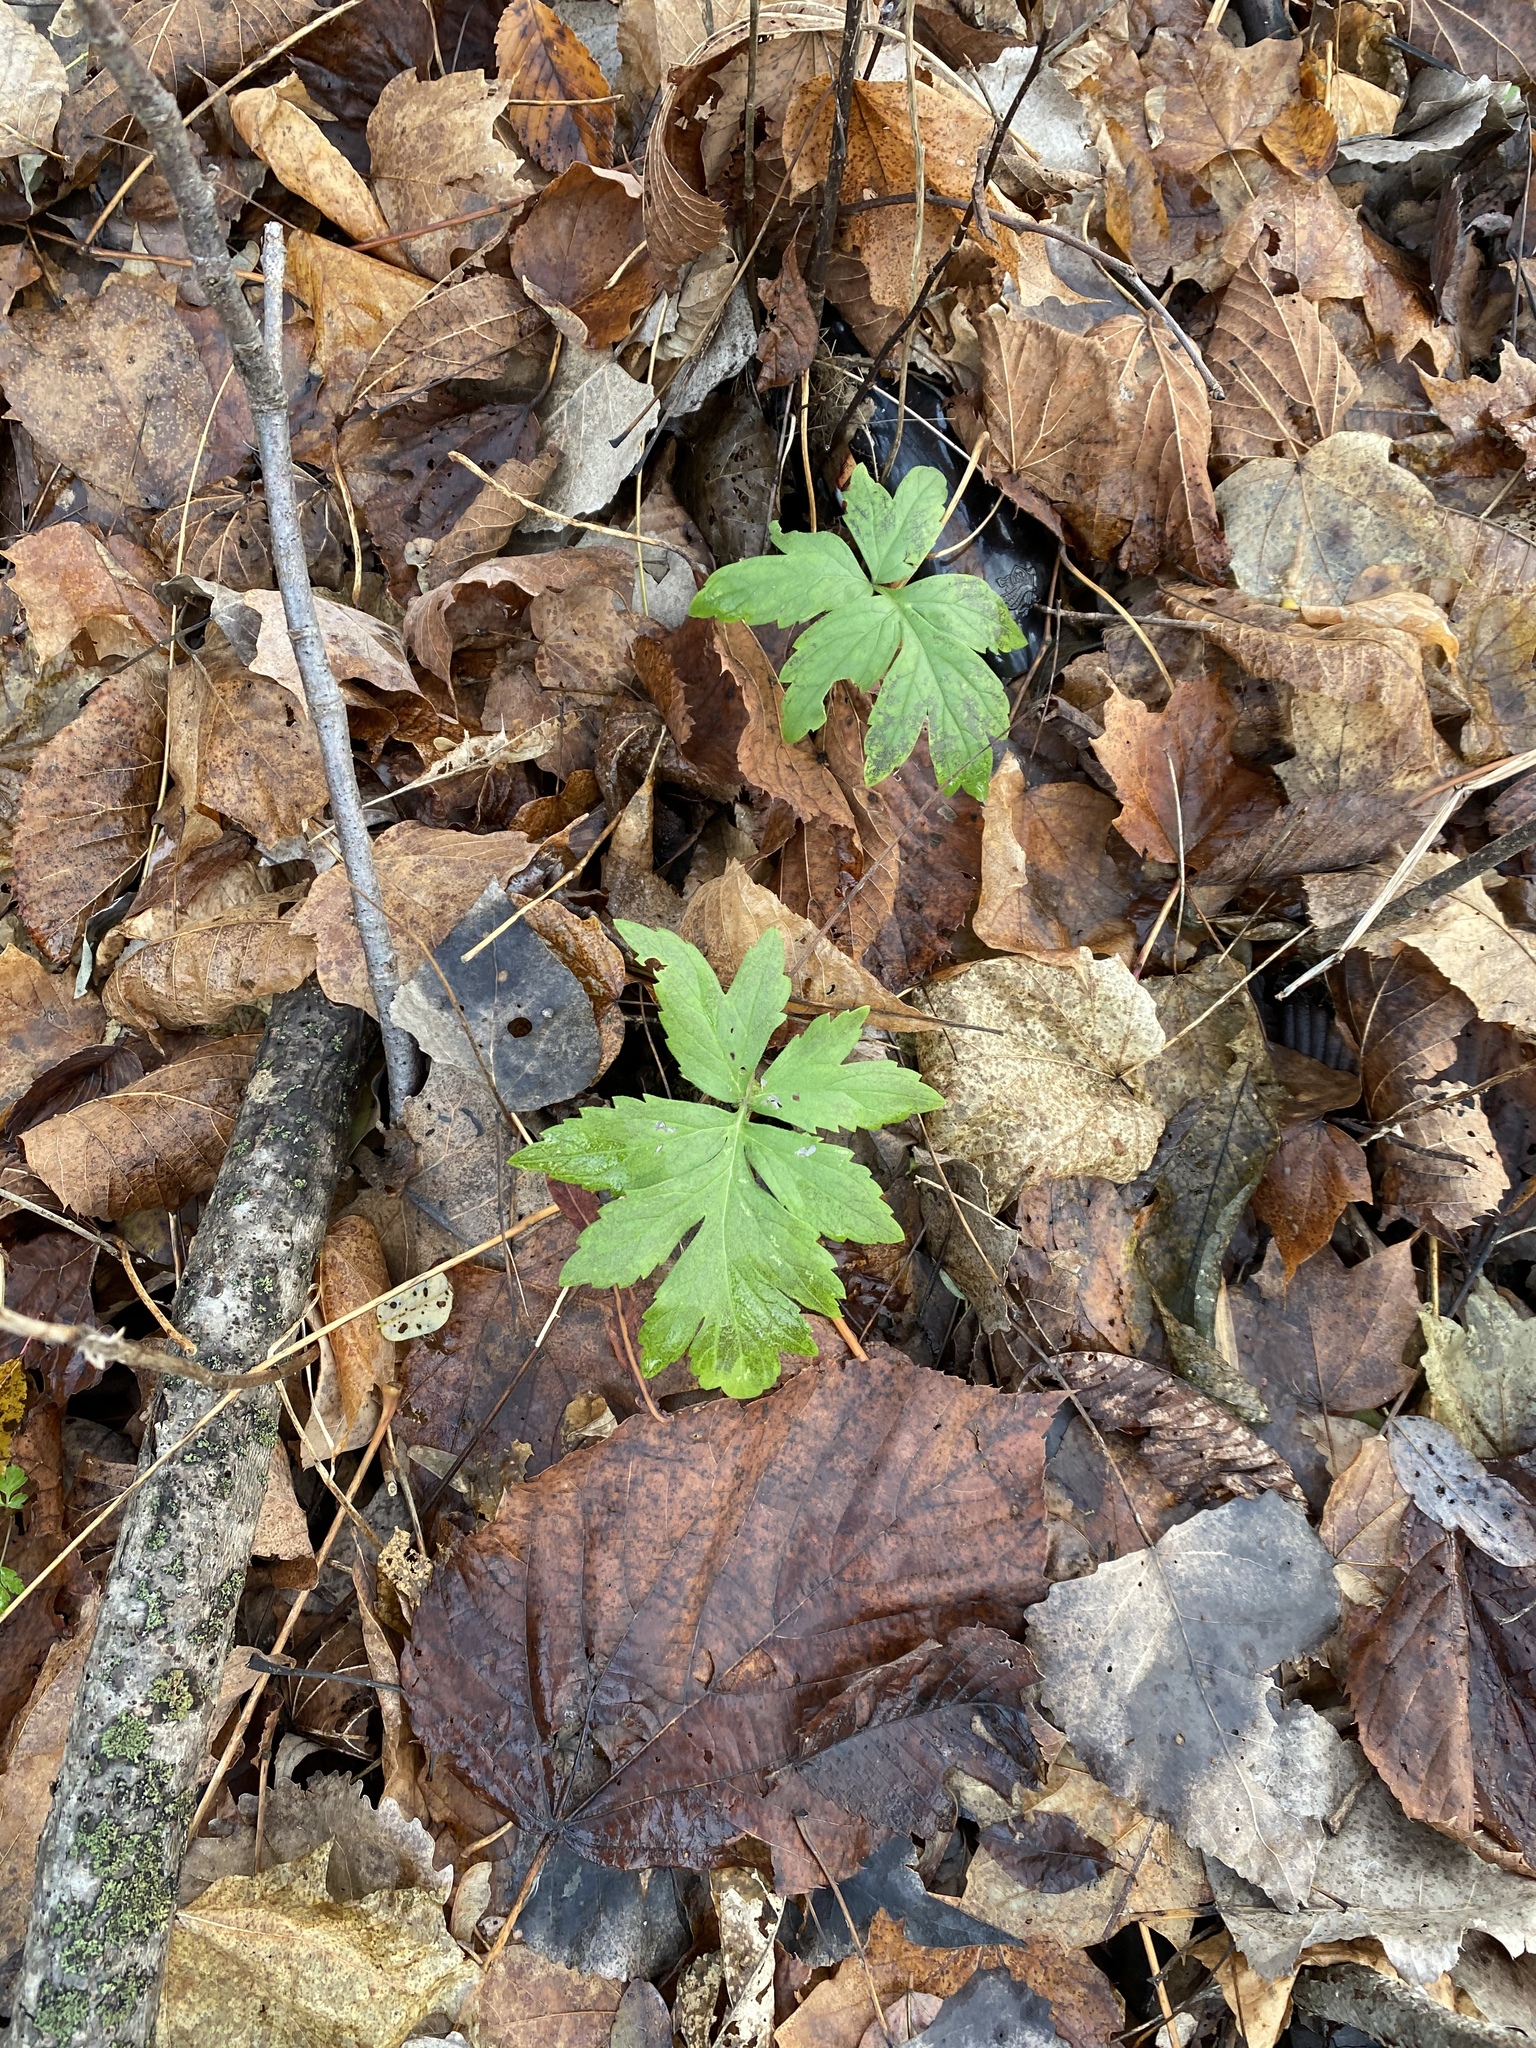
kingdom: Plantae
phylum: Tracheophyta
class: Magnoliopsida
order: Boraginales
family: Hydrophyllaceae
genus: Hydrophyllum
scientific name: Hydrophyllum virginianum
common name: Virginia waterleaf
